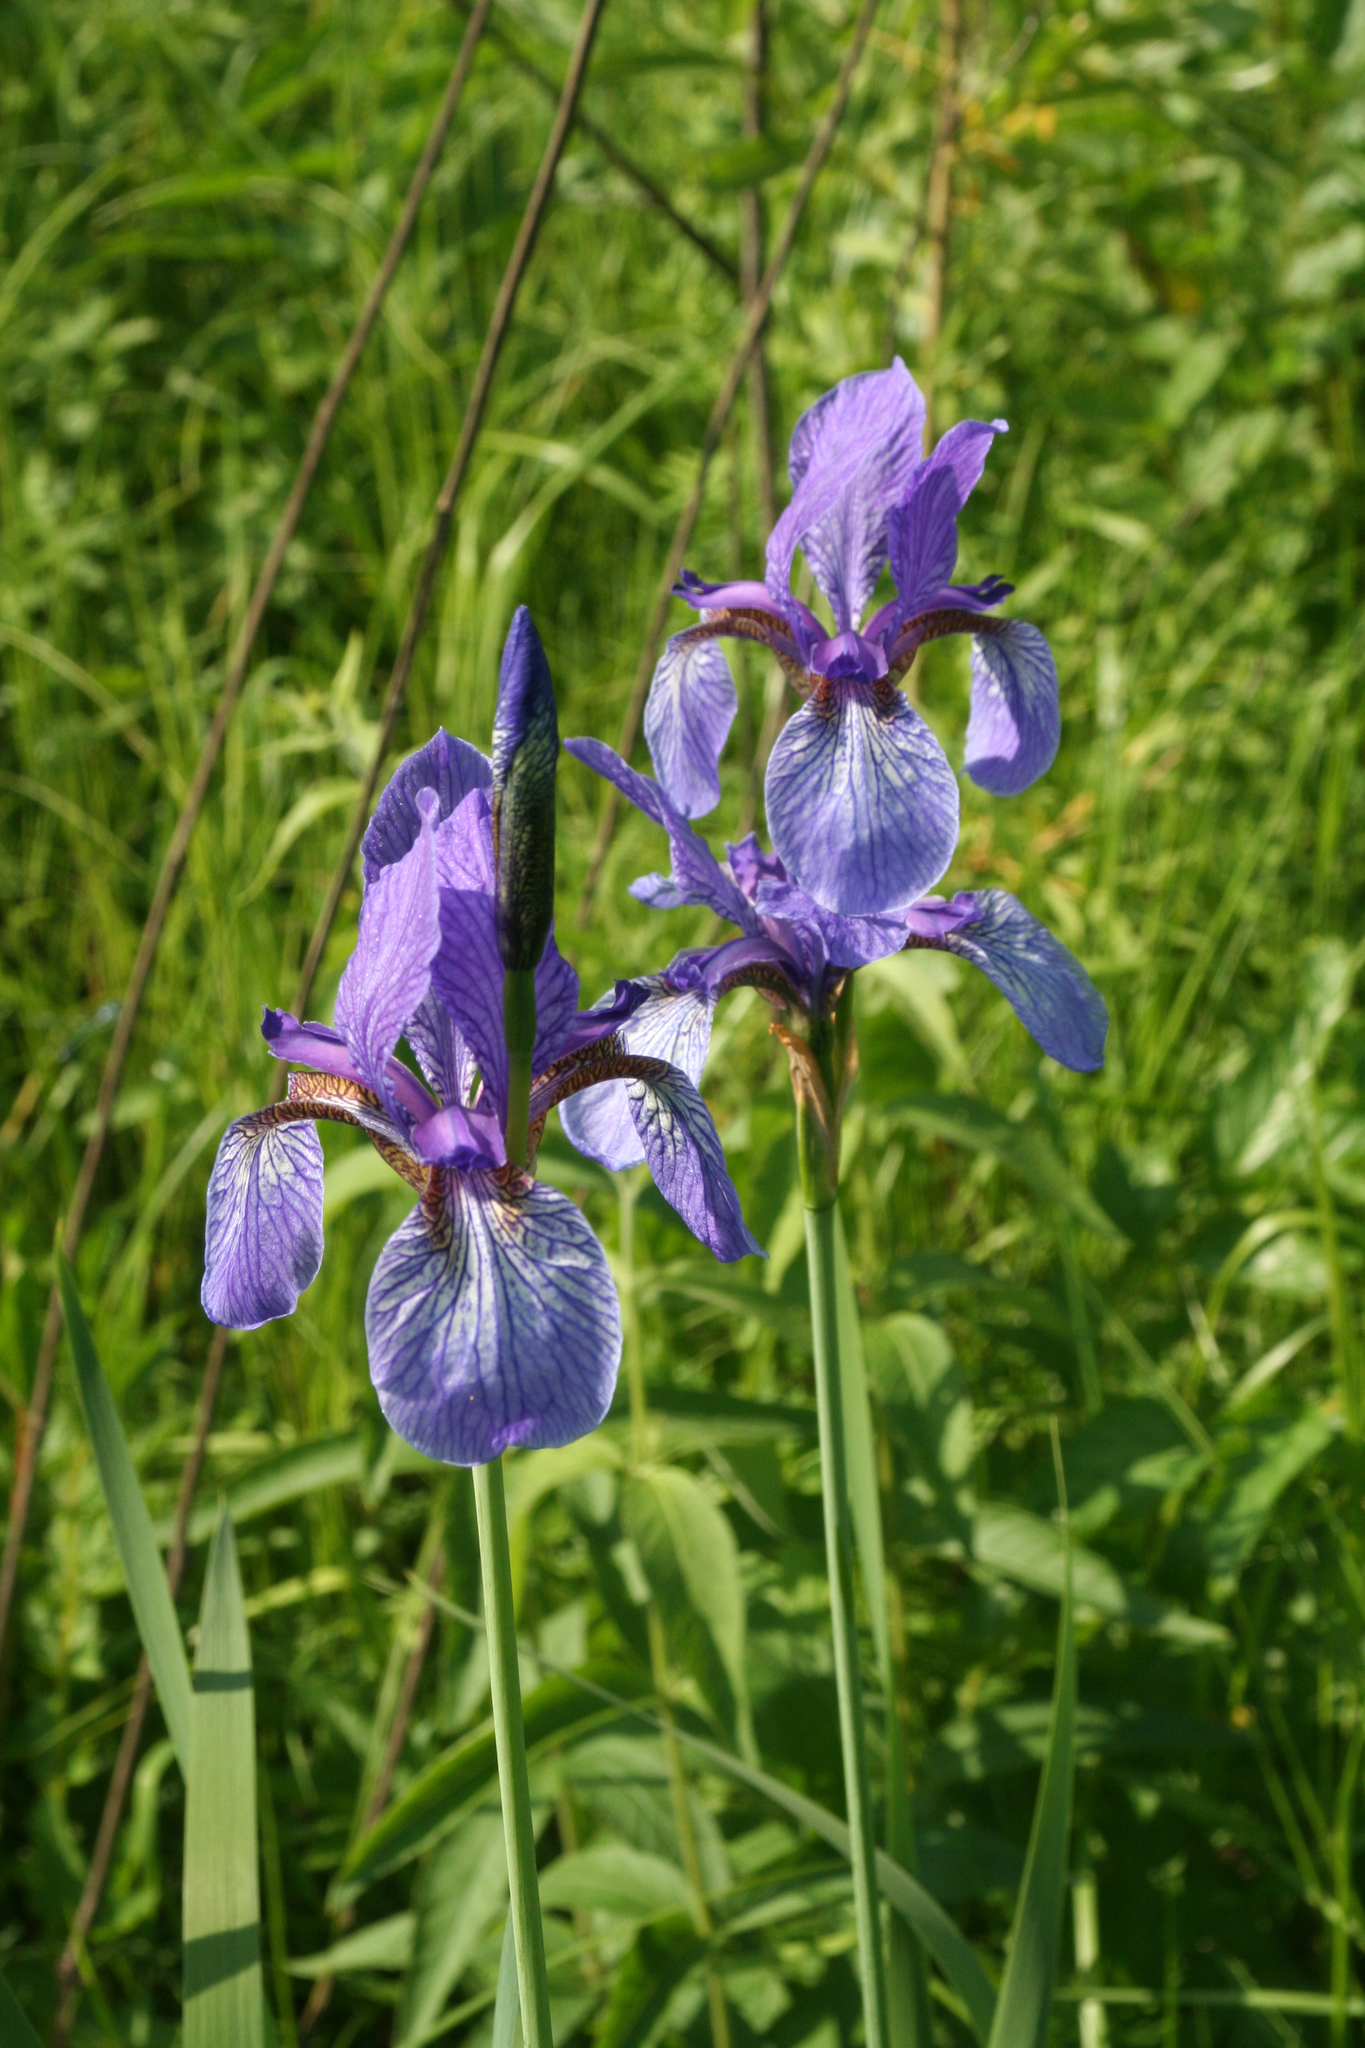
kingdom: Plantae
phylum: Tracheophyta
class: Liliopsida
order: Asparagales
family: Iridaceae
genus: Iris
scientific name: Iris sibirica
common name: Siberian iris
